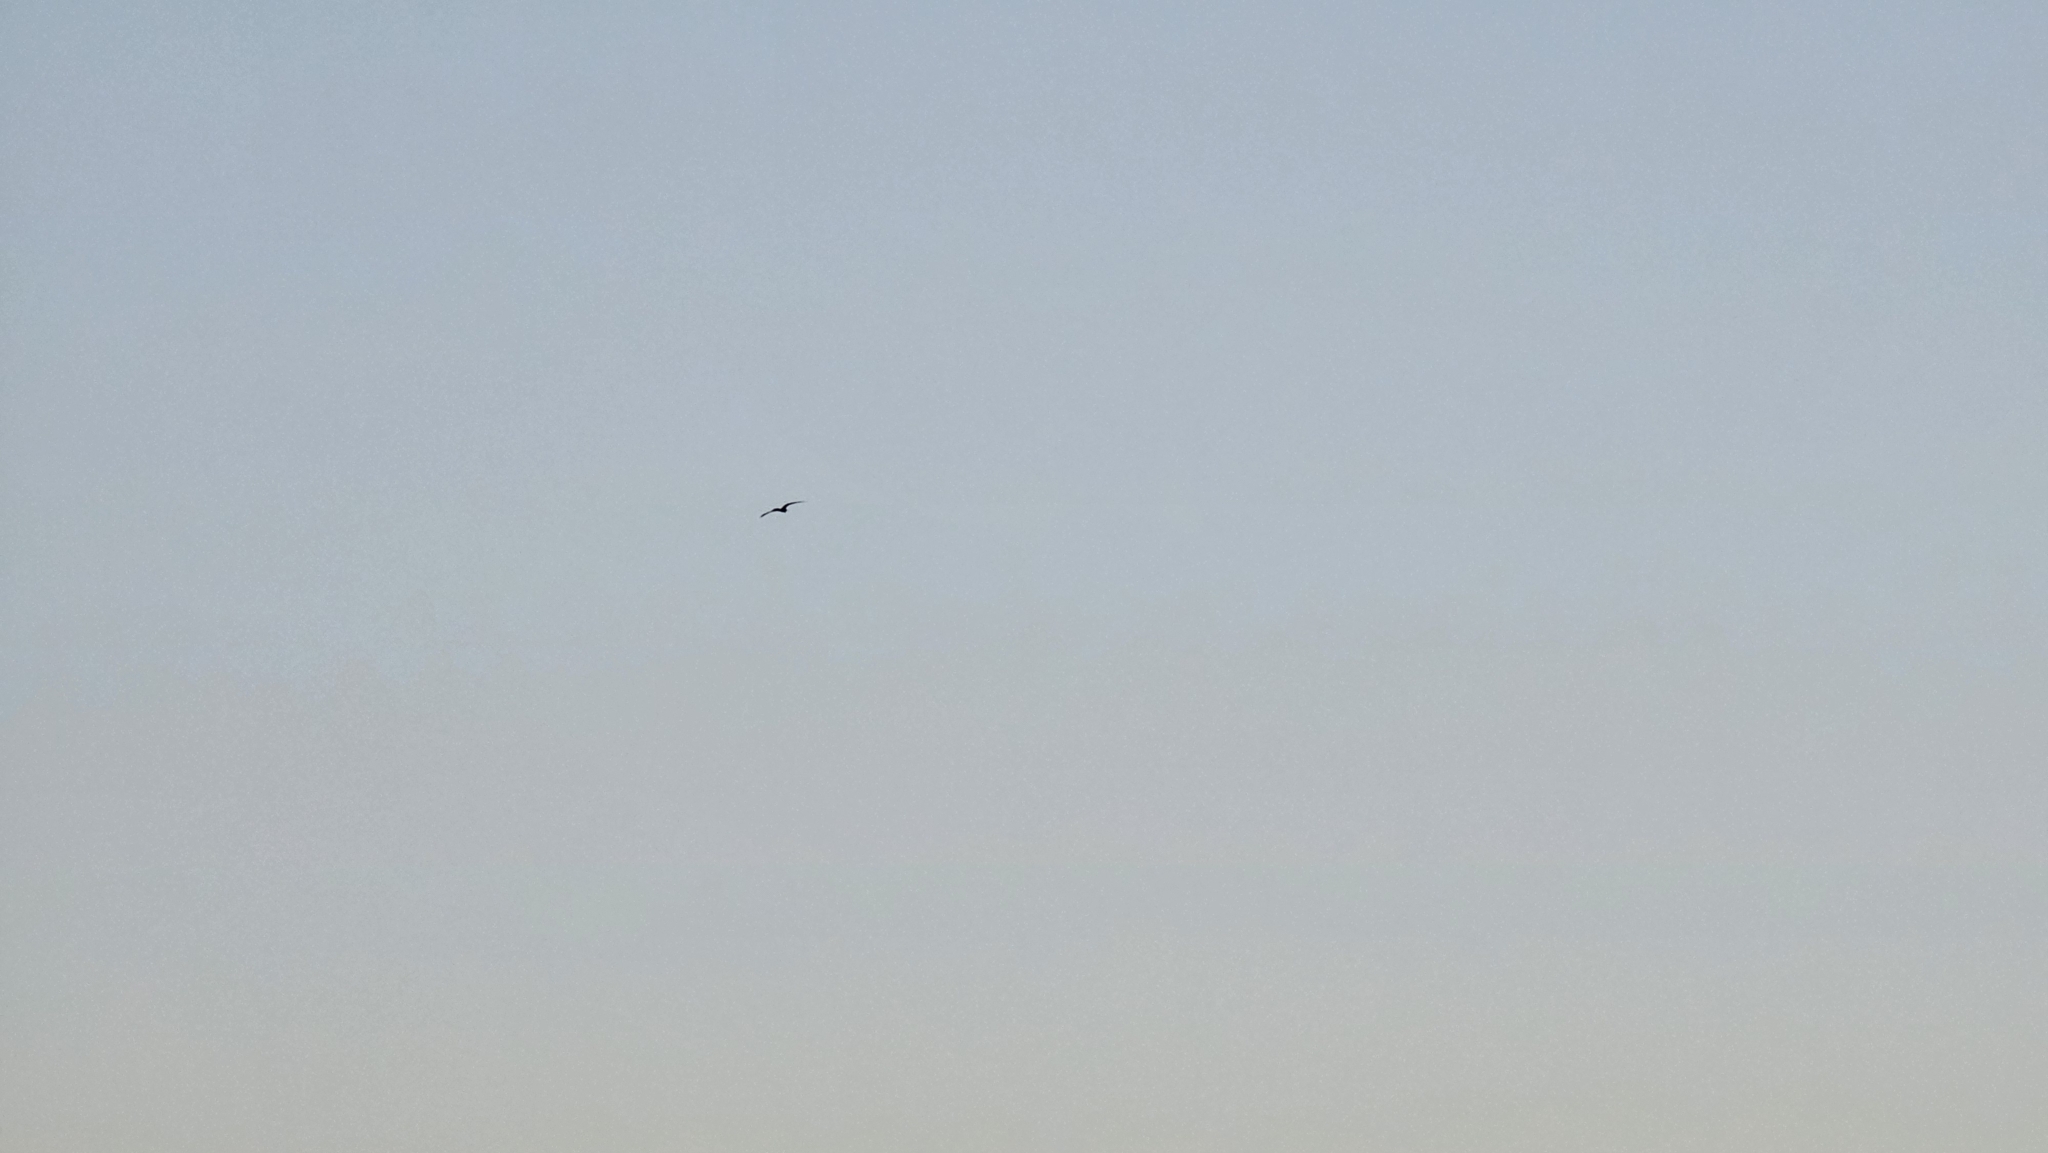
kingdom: Animalia
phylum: Chordata
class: Aves
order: Suliformes
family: Fregatidae
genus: Fregata
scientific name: Fregata magnificens
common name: Magnificent frigatebird
